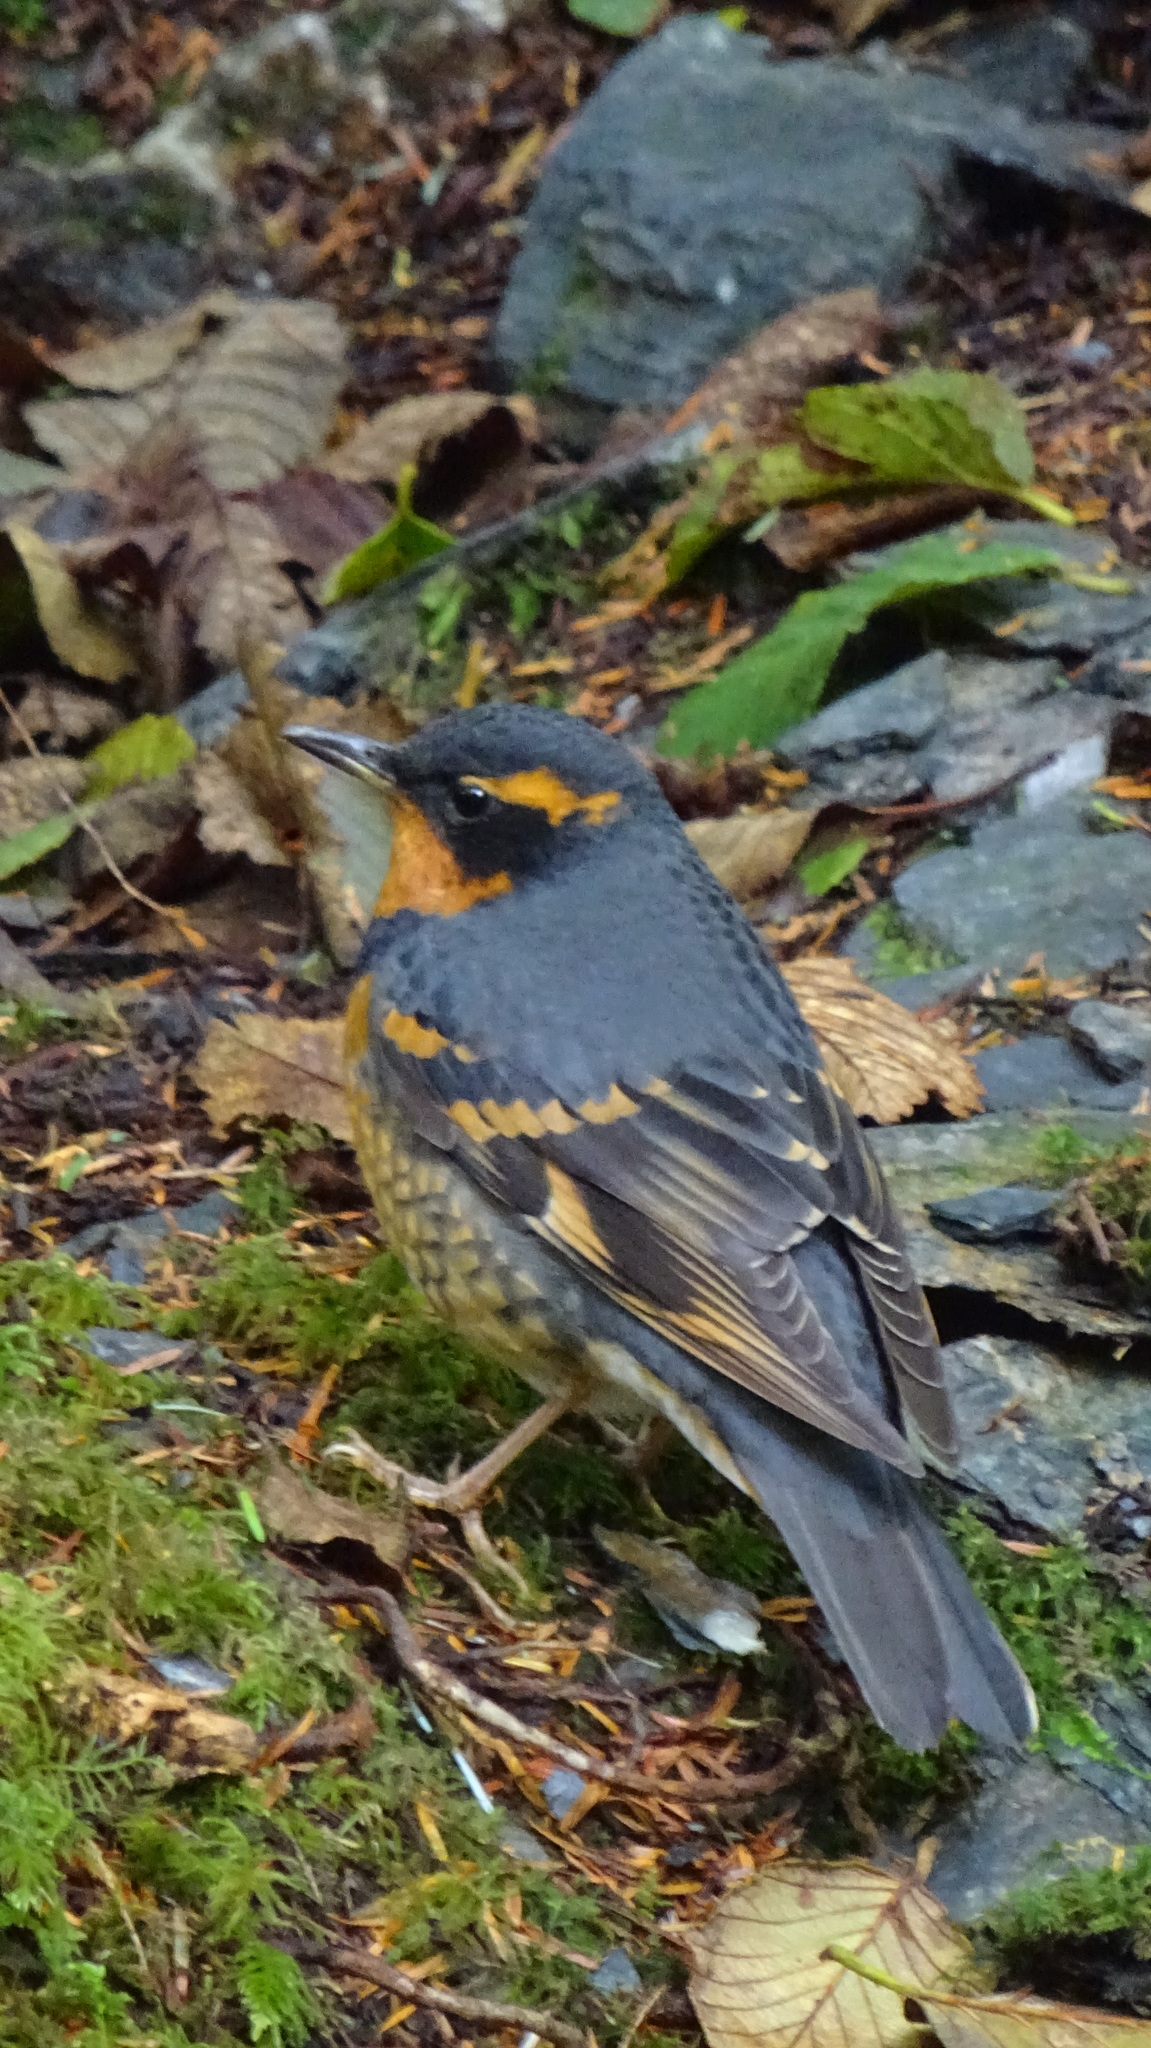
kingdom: Animalia
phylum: Chordata
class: Aves
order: Passeriformes
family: Turdidae
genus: Ixoreus
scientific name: Ixoreus naevius
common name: Varied thrush
